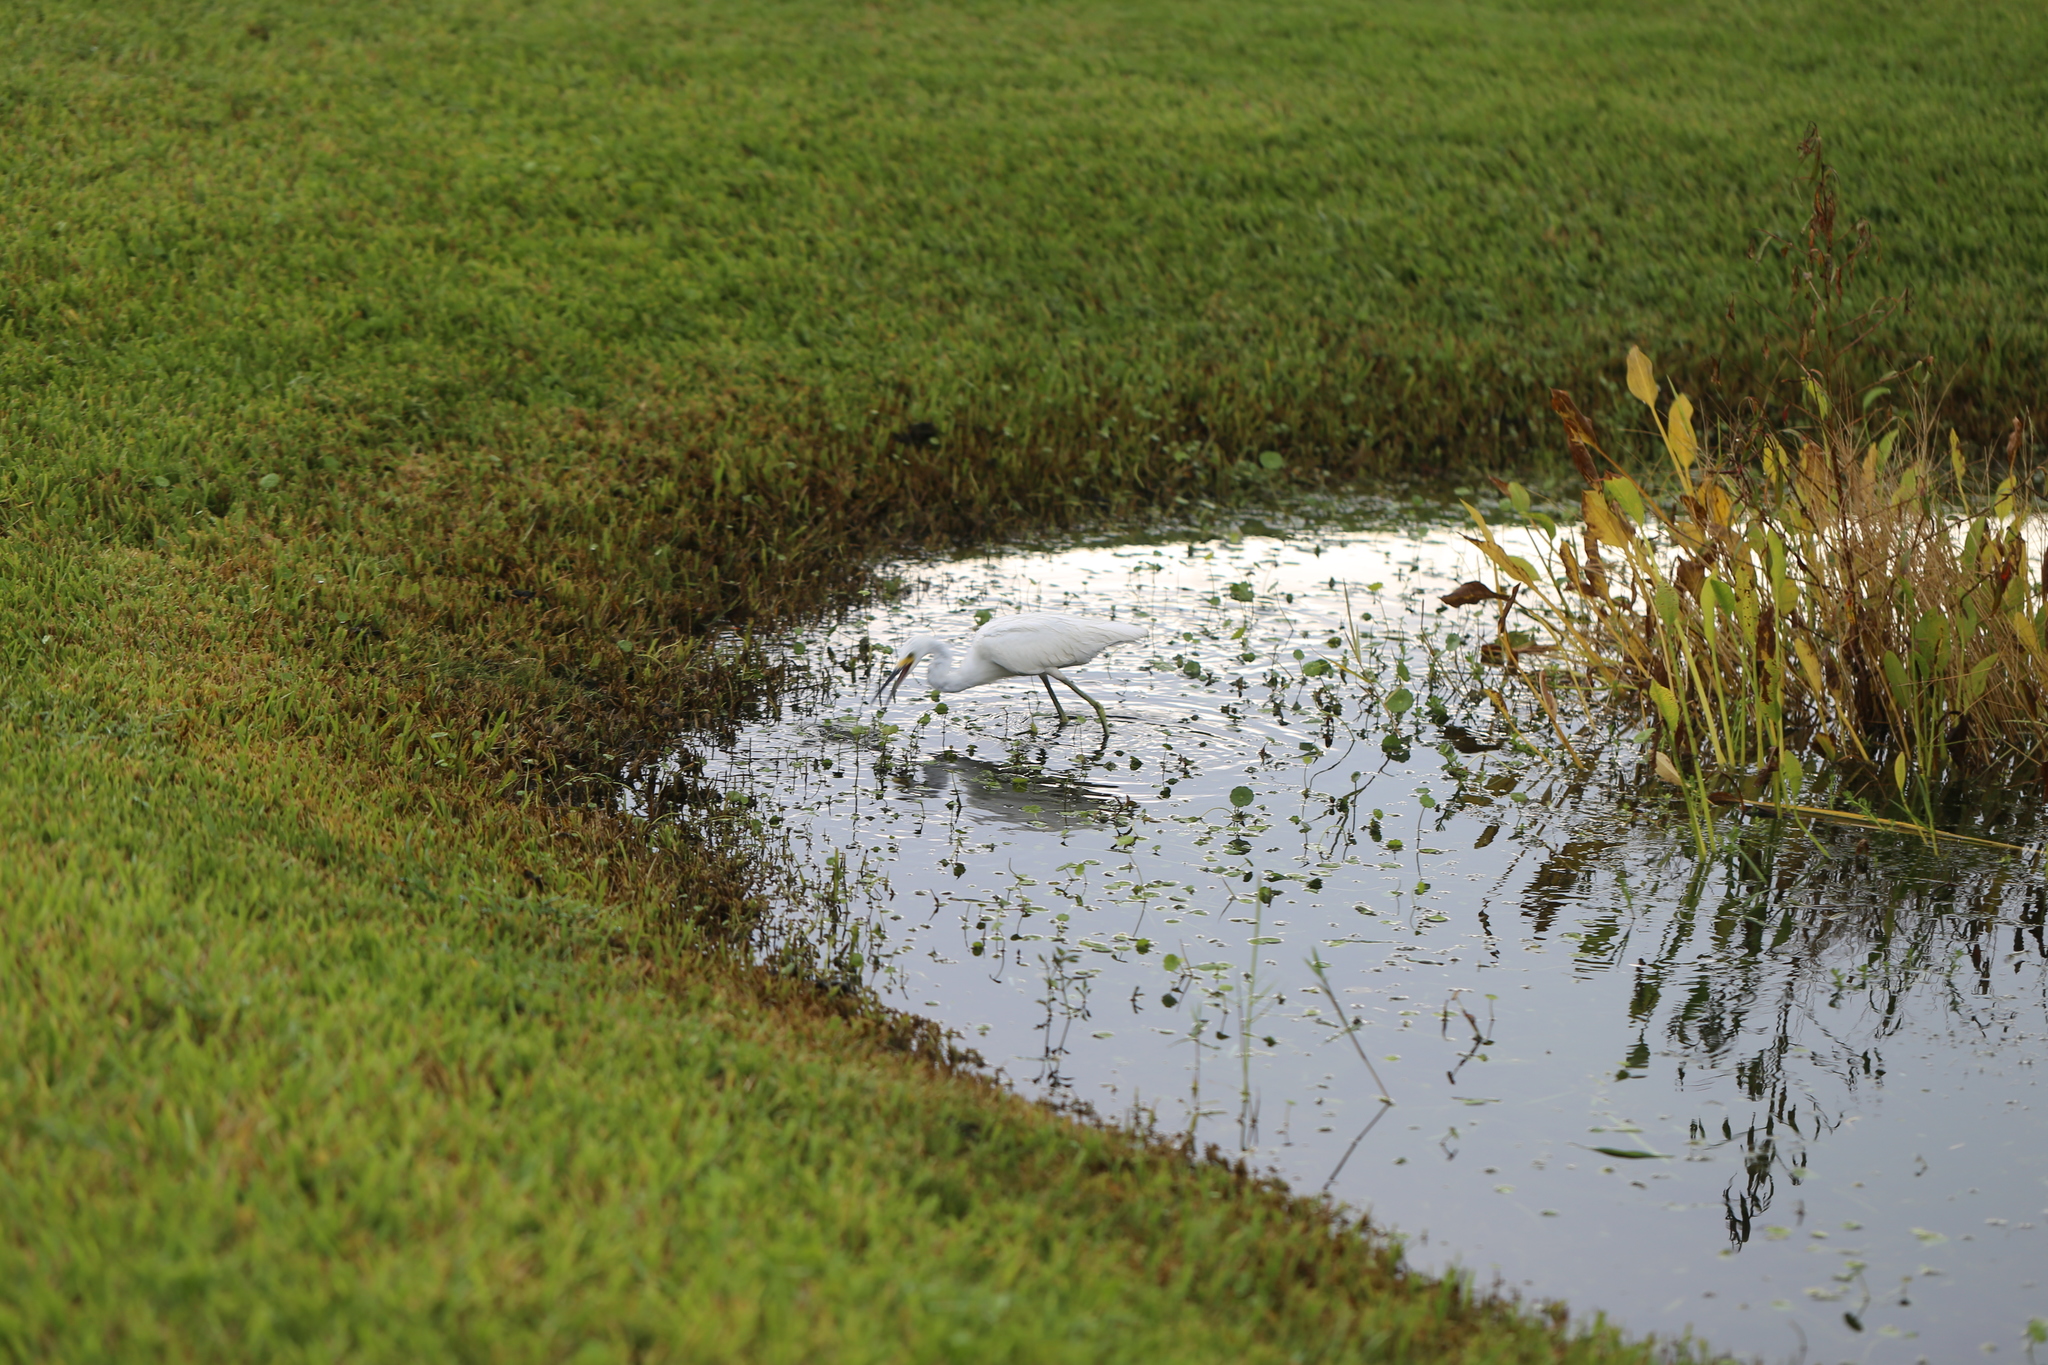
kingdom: Animalia
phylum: Chordata
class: Aves
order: Pelecaniformes
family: Ardeidae
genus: Egretta
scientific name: Egretta thula
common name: Snowy egret
